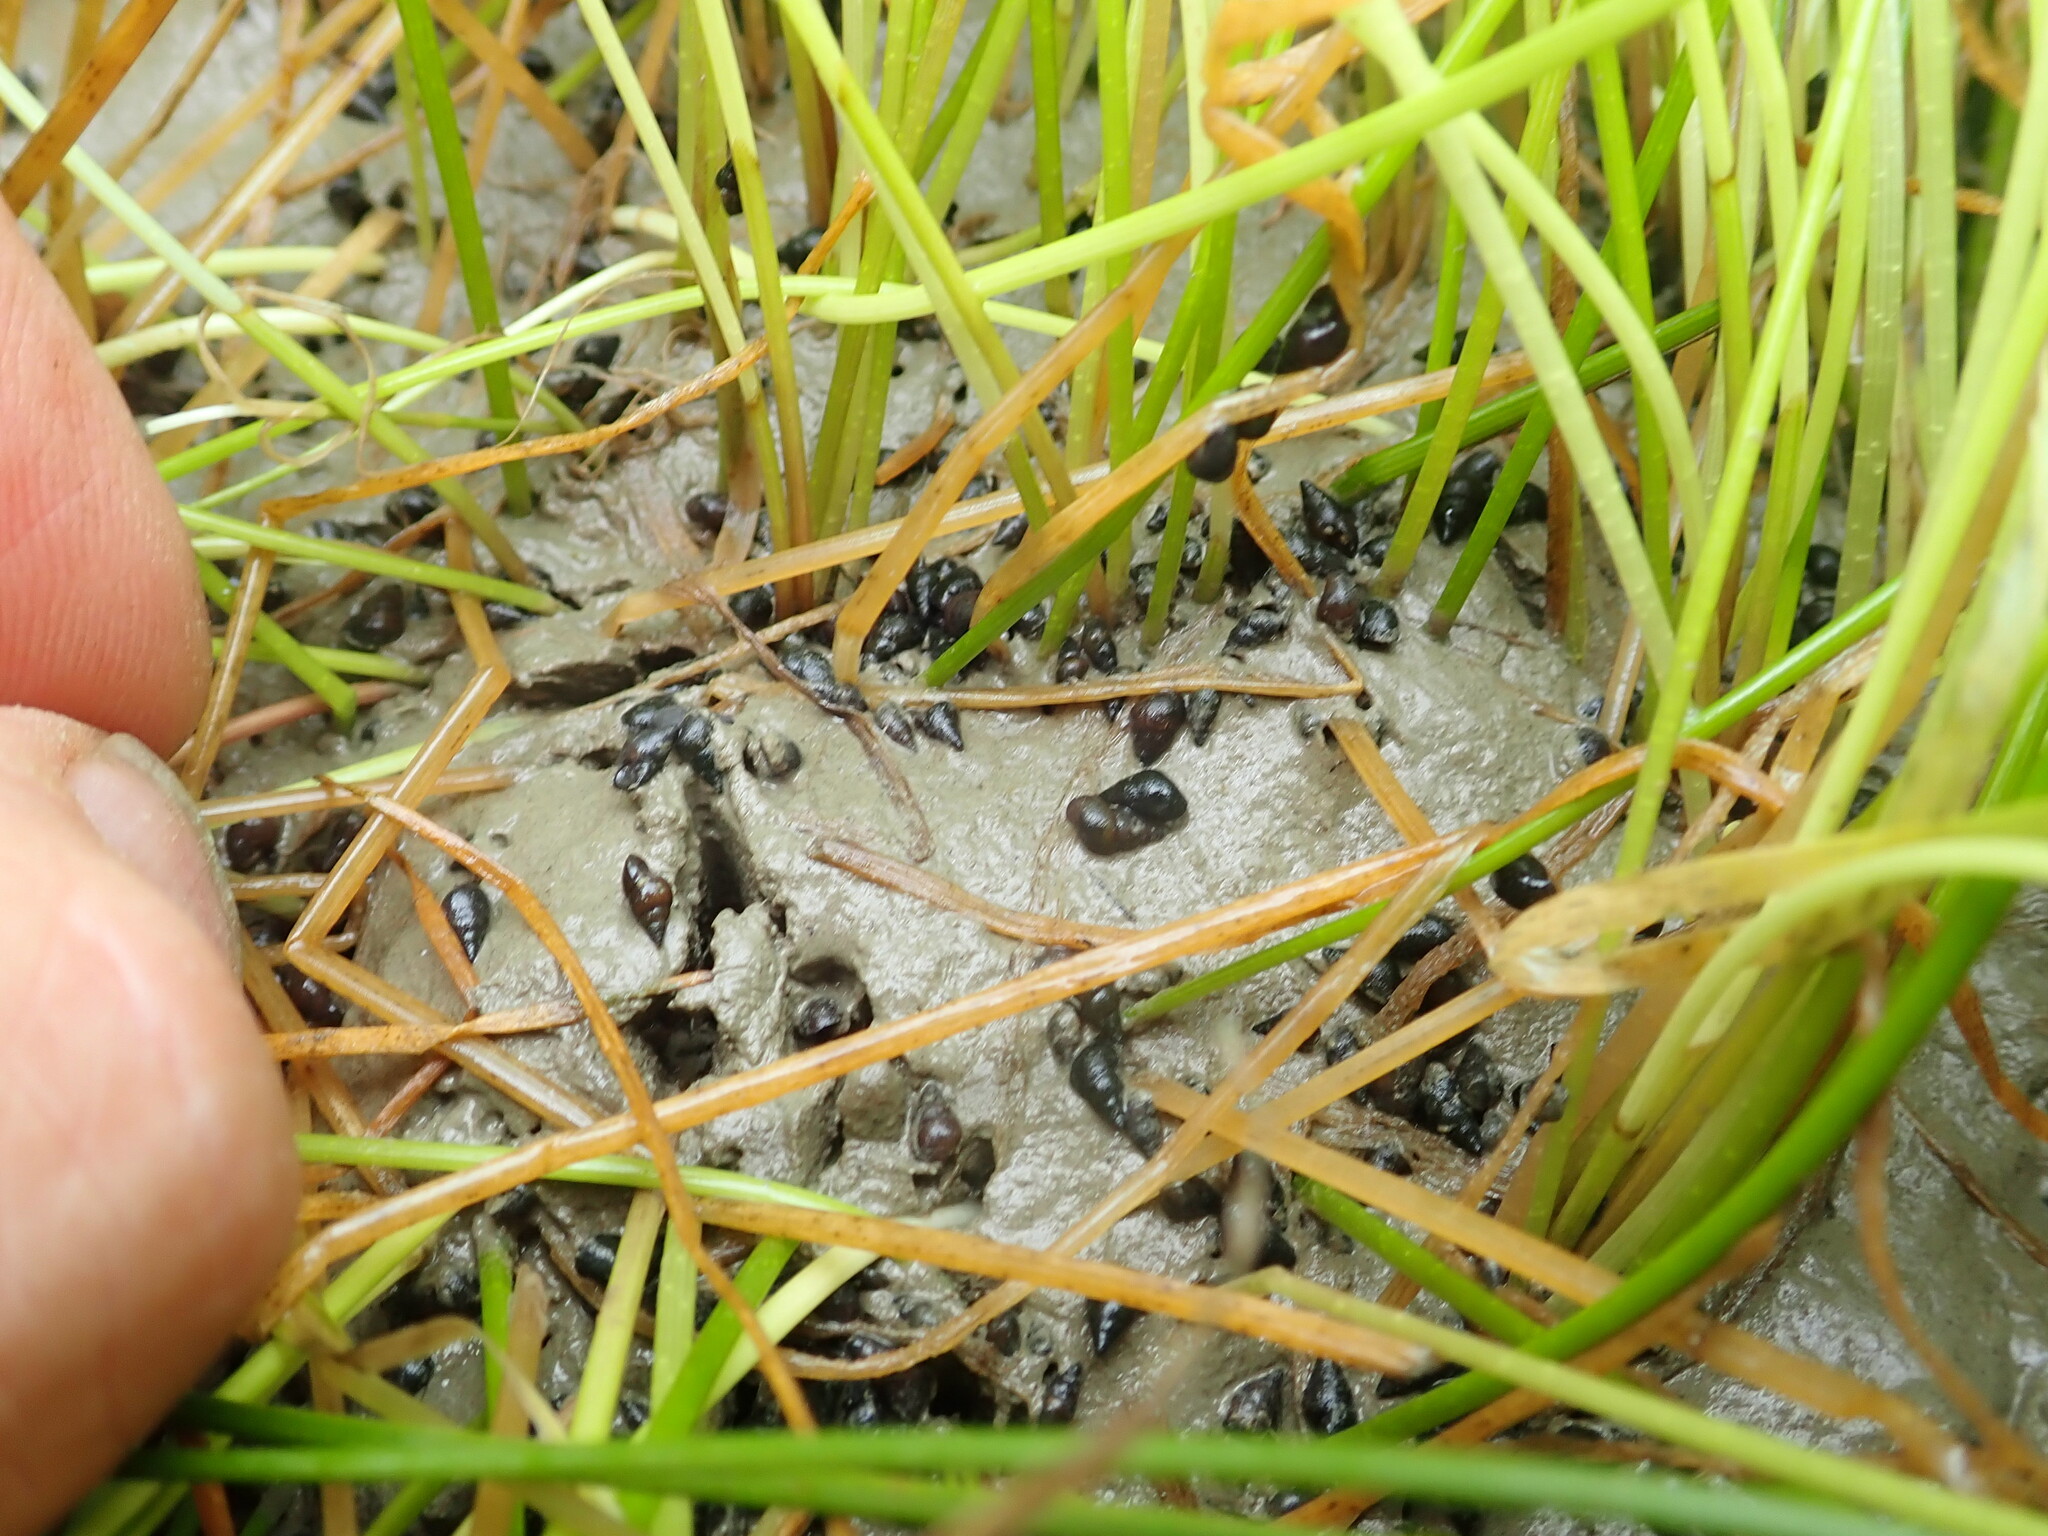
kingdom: Animalia
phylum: Mollusca
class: Gastropoda
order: Littorinimorpha
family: Tateidae
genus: Potamopyrgus
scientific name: Potamopyrgus estuarinus
